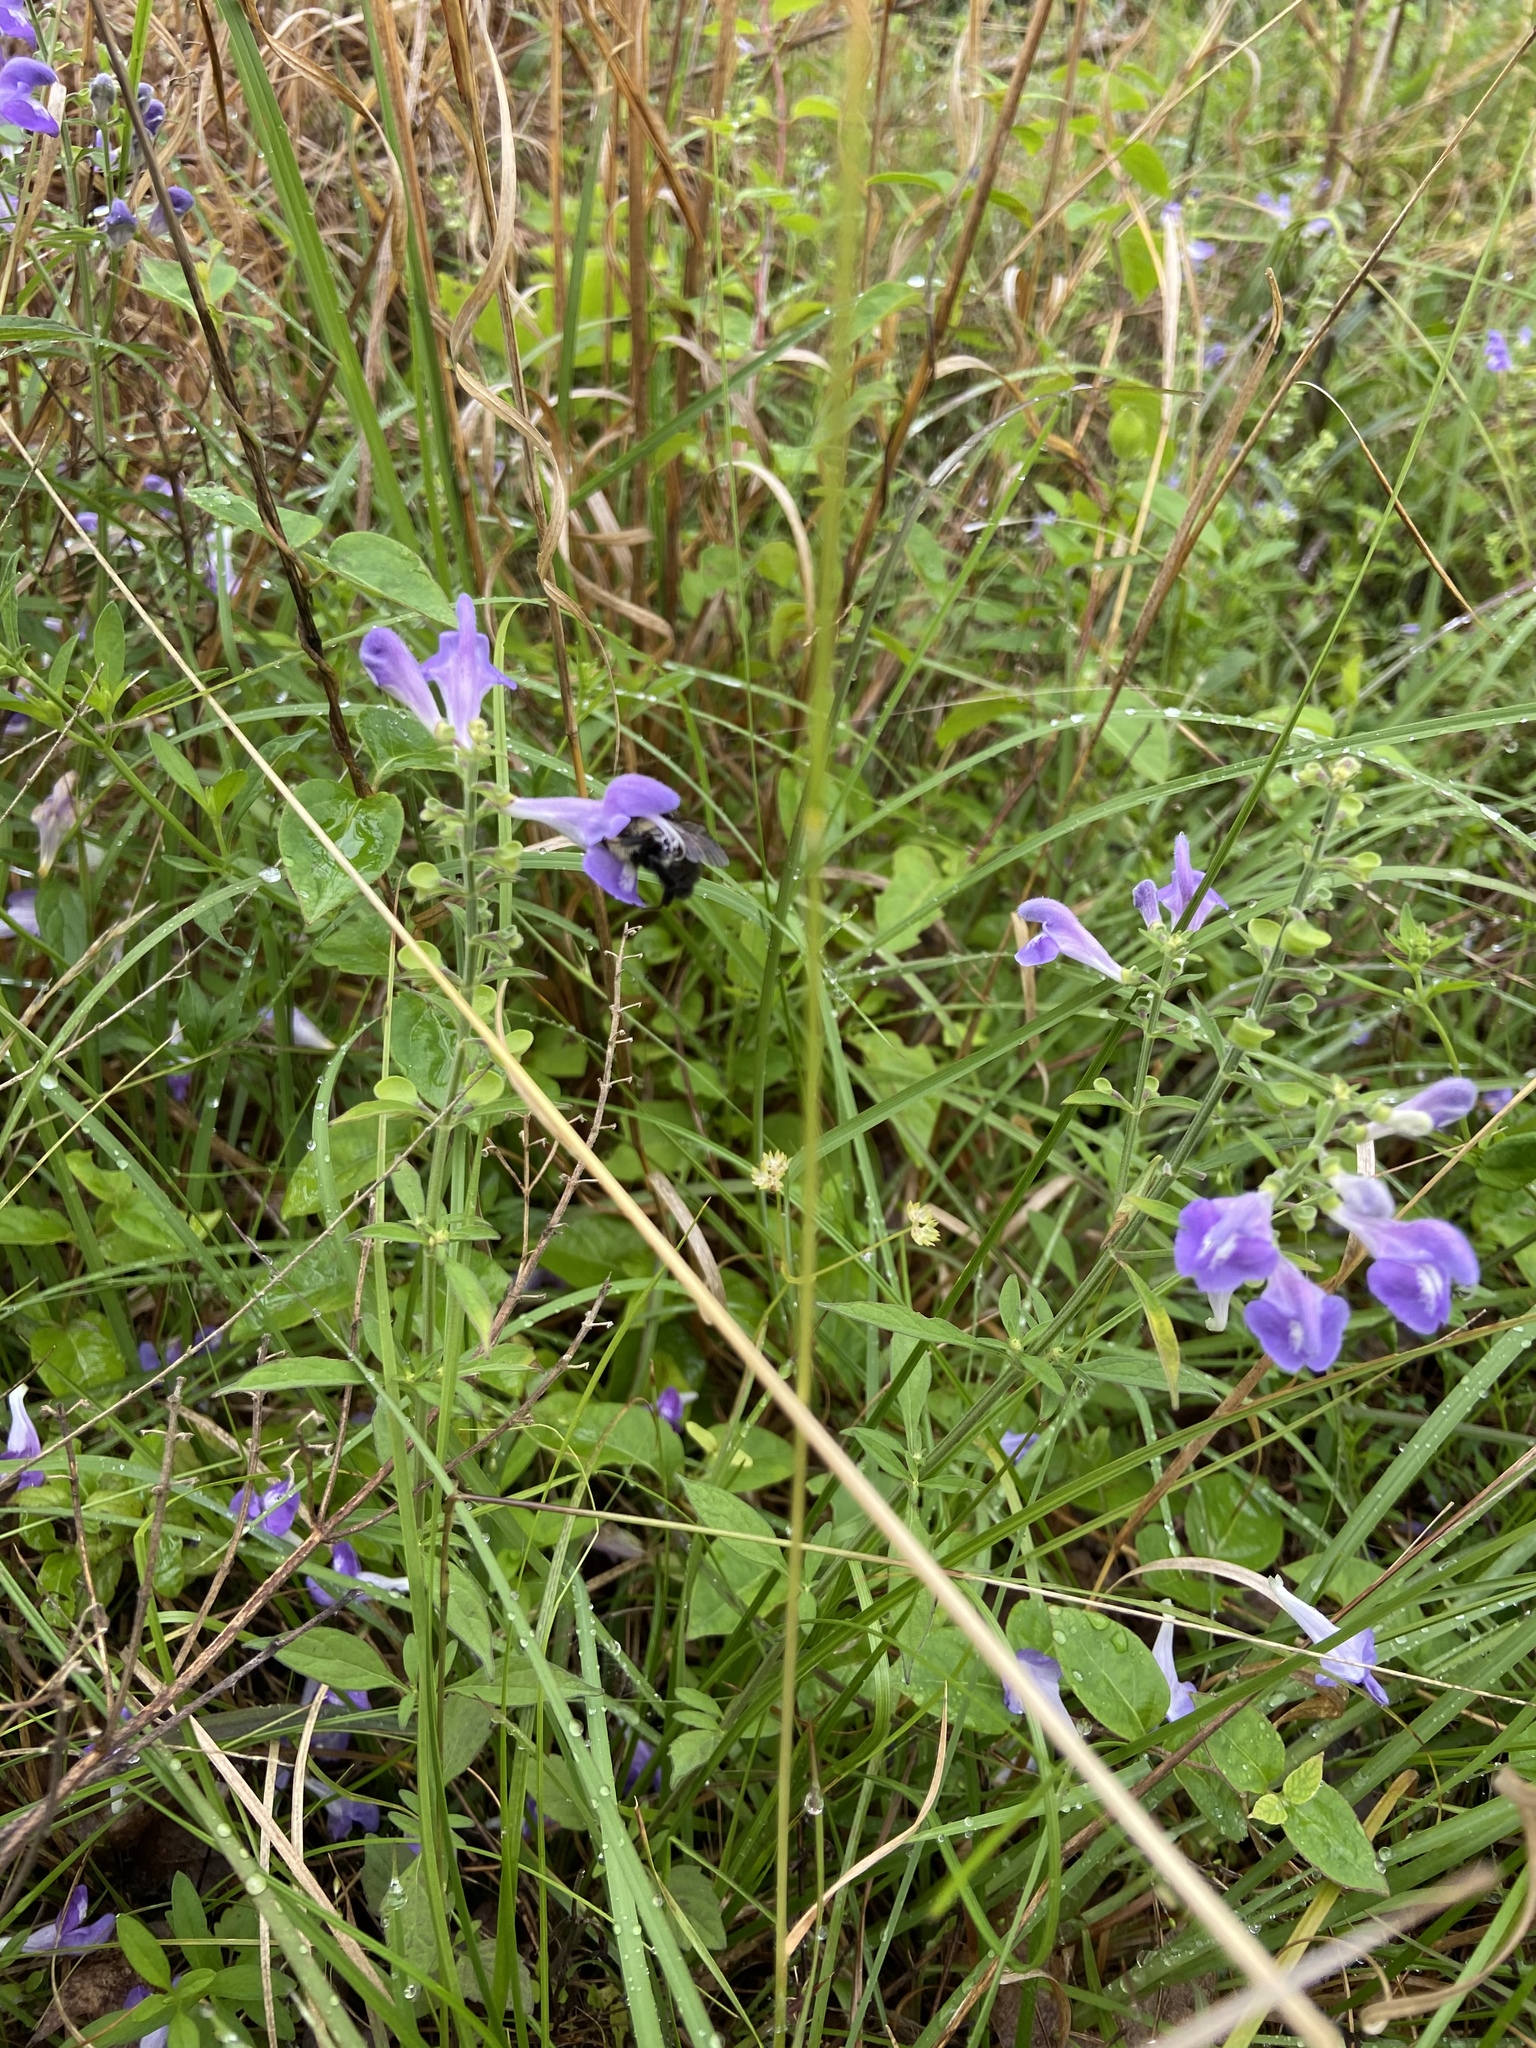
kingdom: Plantae
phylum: Tracheophyta
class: Magnoliopsida
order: Lamiales
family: Lamiaceae
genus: Scutellaria
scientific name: Scutellaria integrifolia
